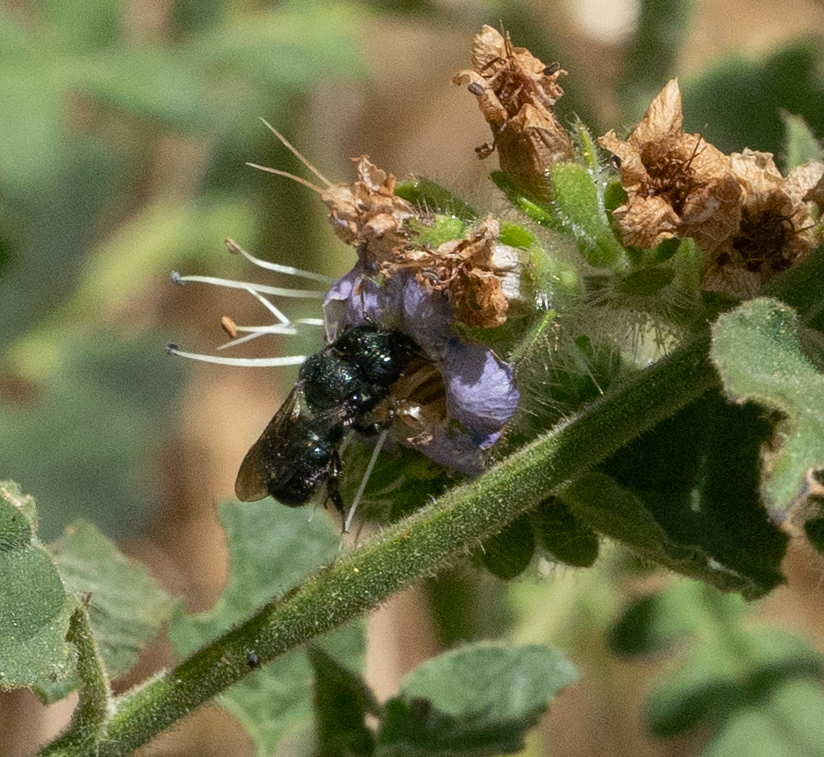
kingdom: Animalia
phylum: Arthropoda
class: Insecta
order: Hymenoptera
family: Megachilidae
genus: Osmia
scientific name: Osmia
